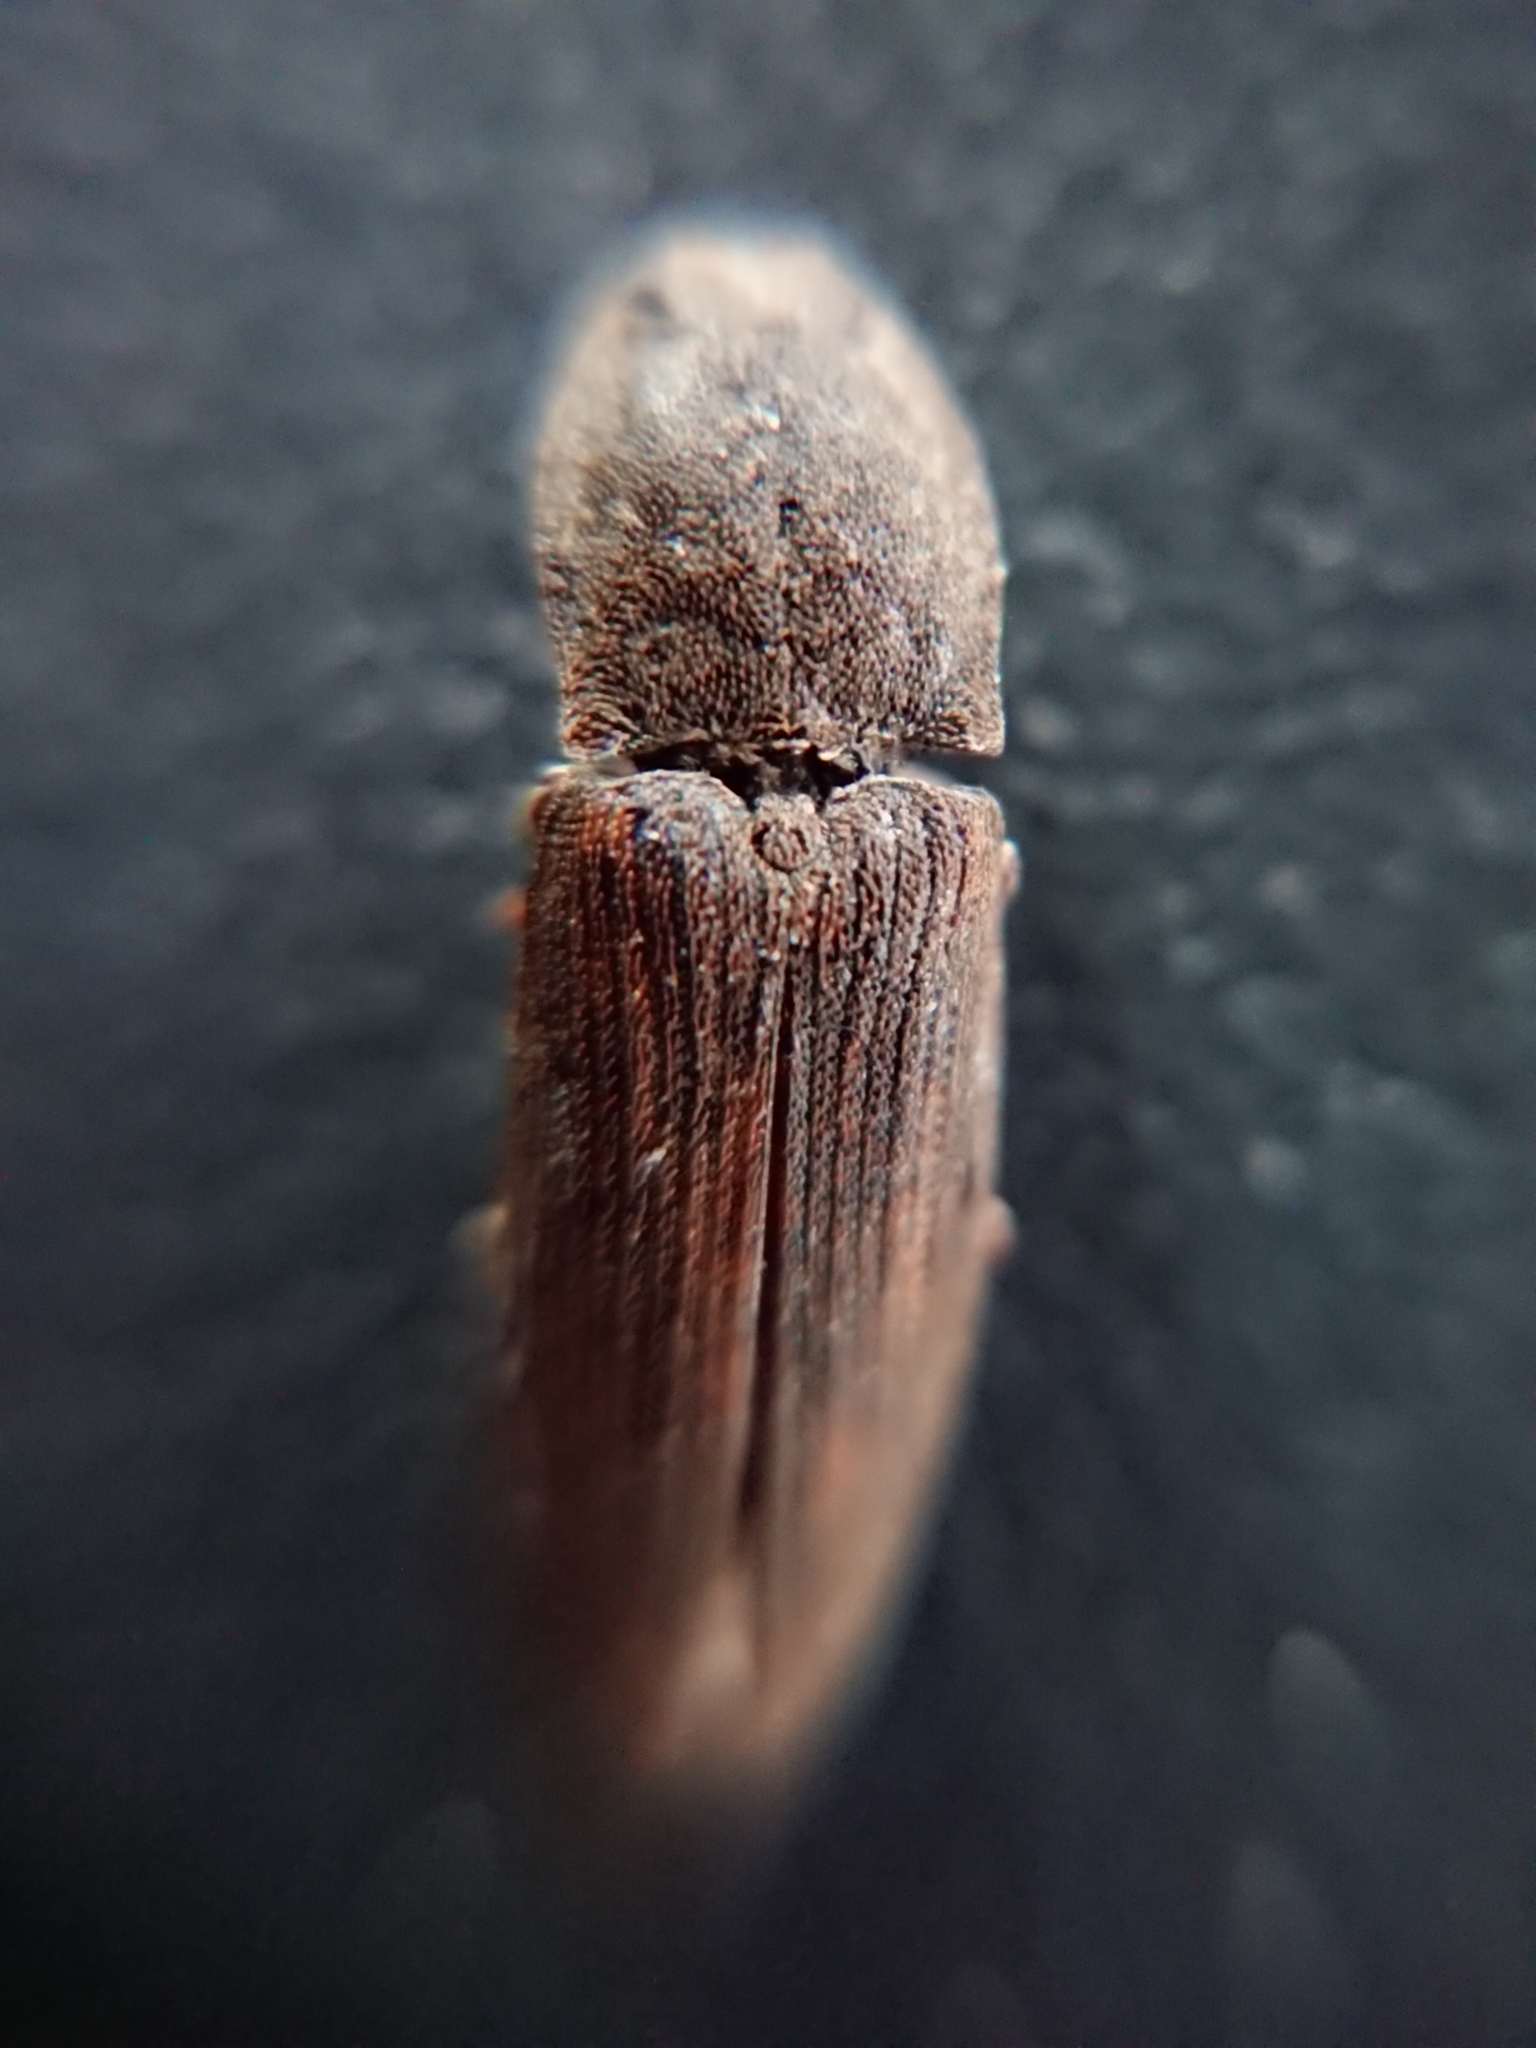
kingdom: Animalia
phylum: Arthropoda
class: Insecta
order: Coleoptera
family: Elateridae
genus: Agrypnus
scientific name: Agrypnus
